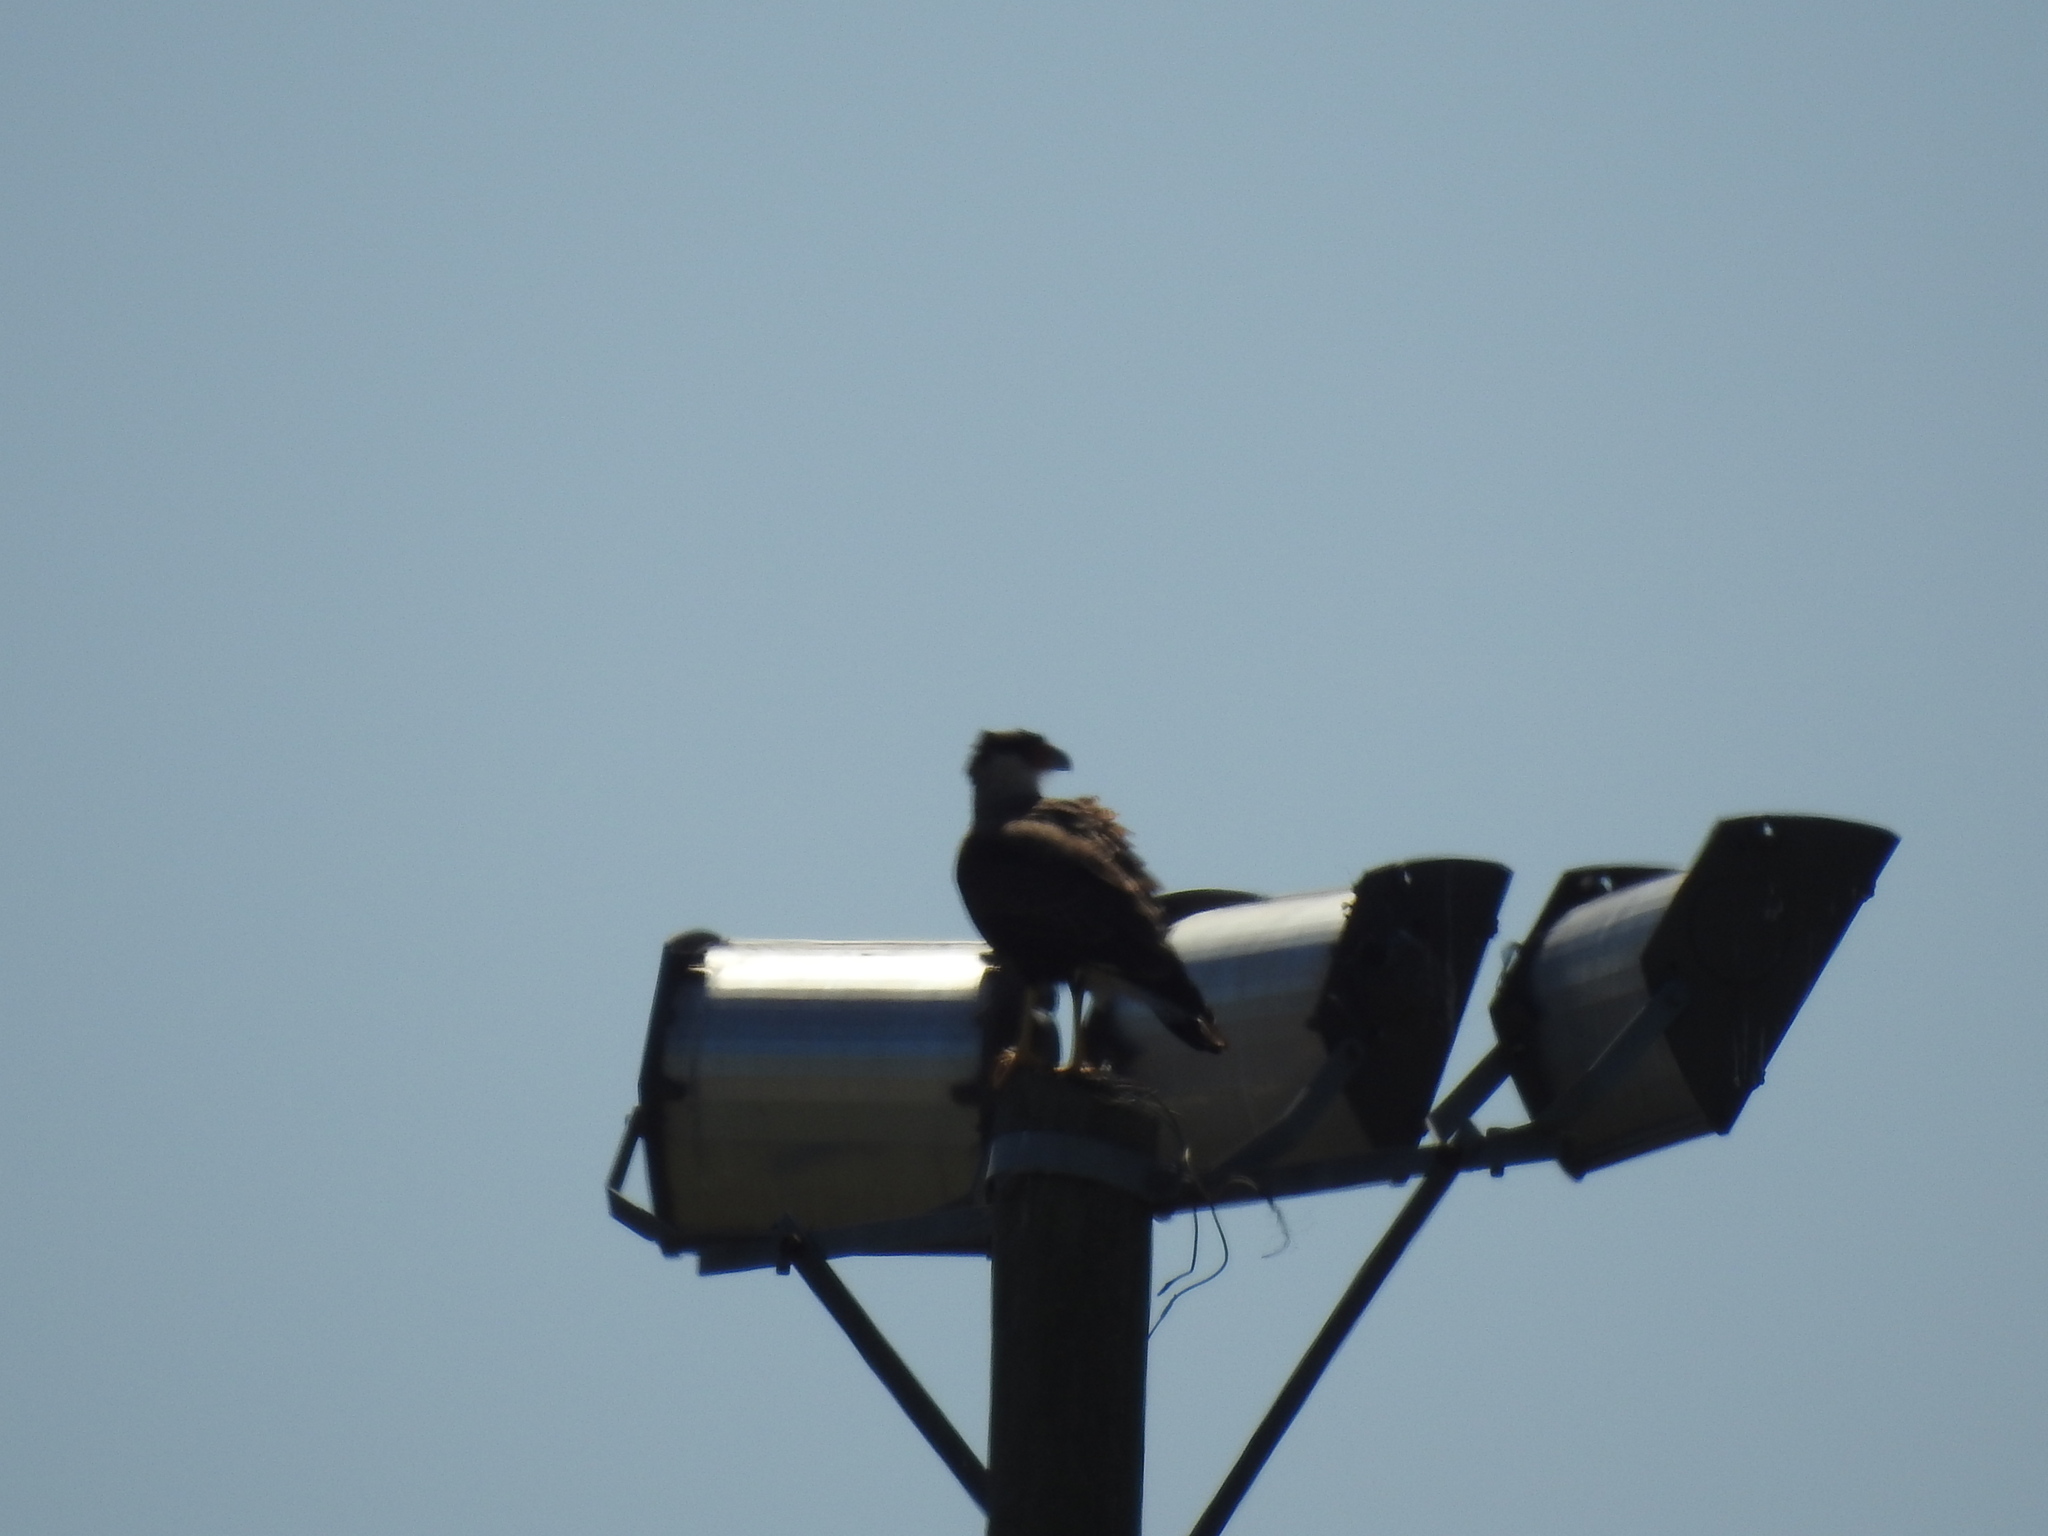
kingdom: Animalia
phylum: Chordata
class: Aves
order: Falconiformes
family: Falconidae
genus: Caracara
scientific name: Caracara plancus
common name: Southern caracara
